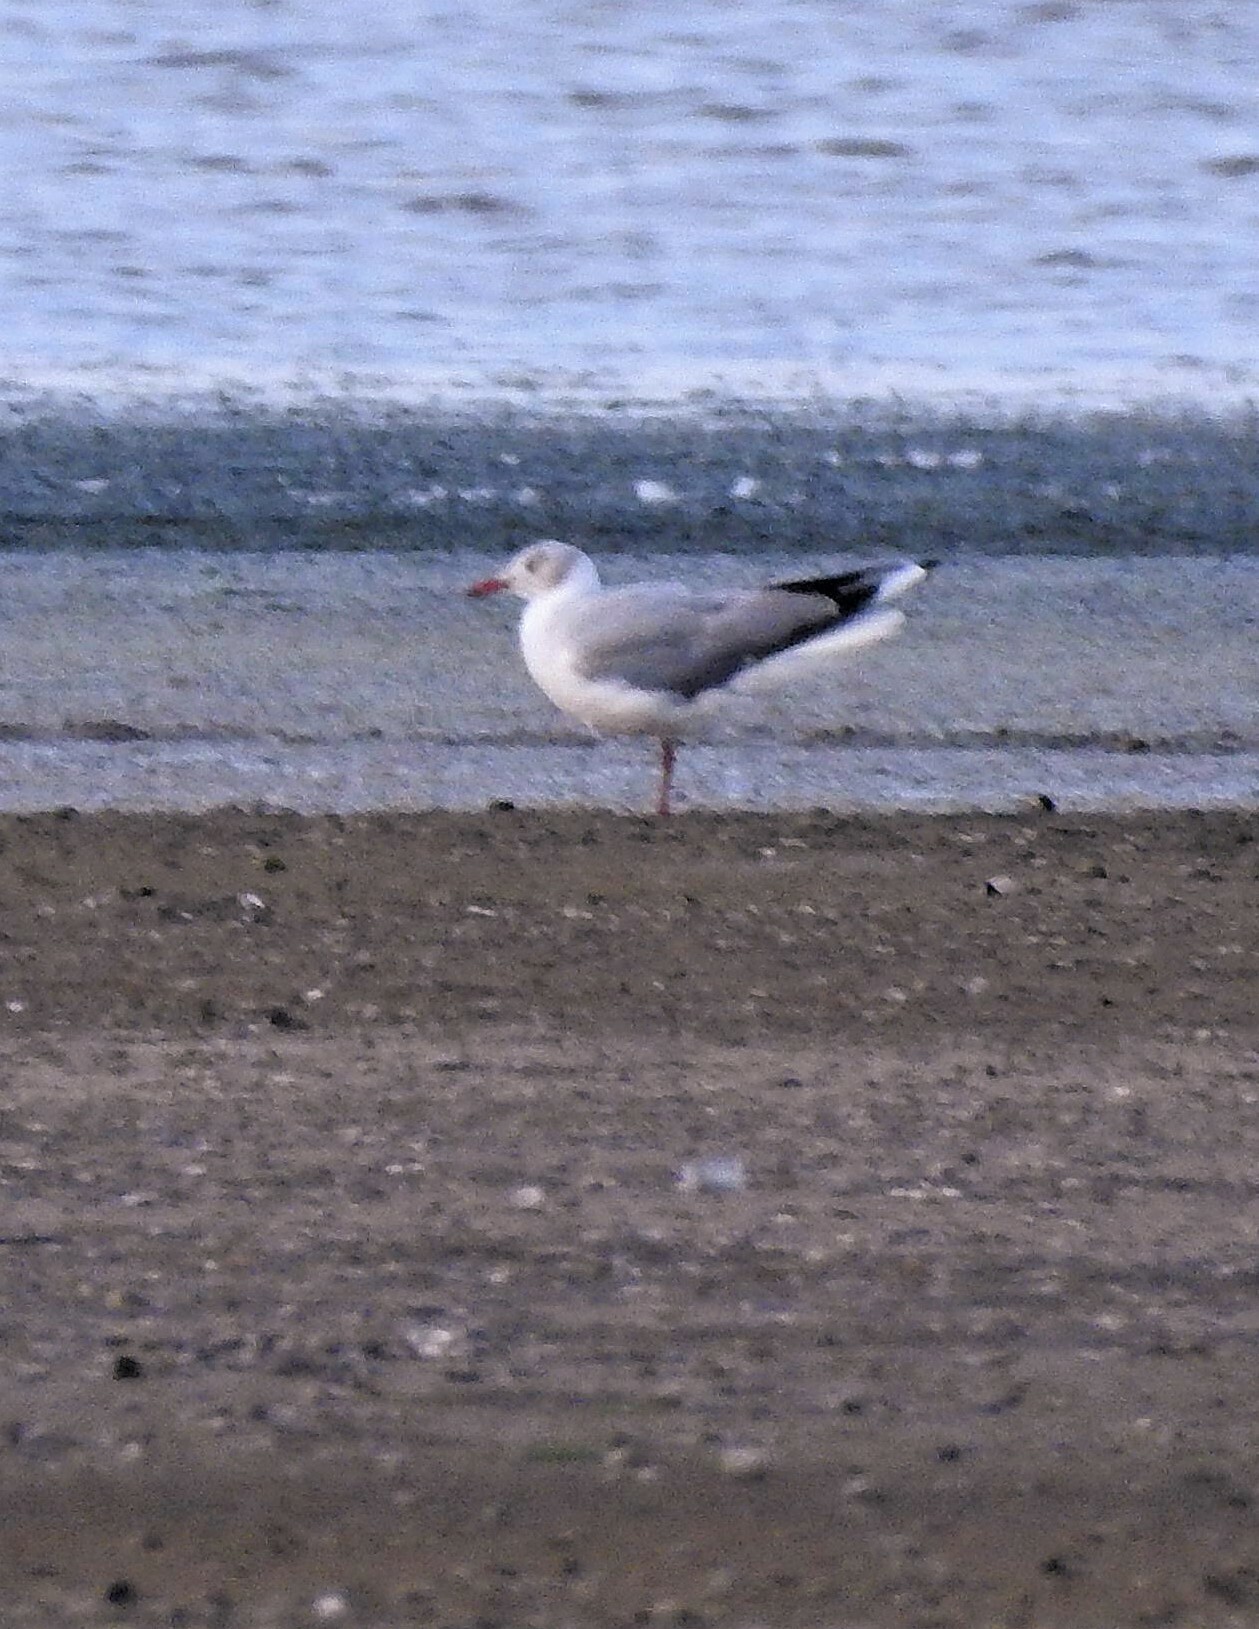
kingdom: Animalia
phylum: Chordata
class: Aves
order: Charadriiformes
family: Laridae
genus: Chroicocephalus
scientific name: Chroicocephalus cirrocephalus
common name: Grey-headed gull
